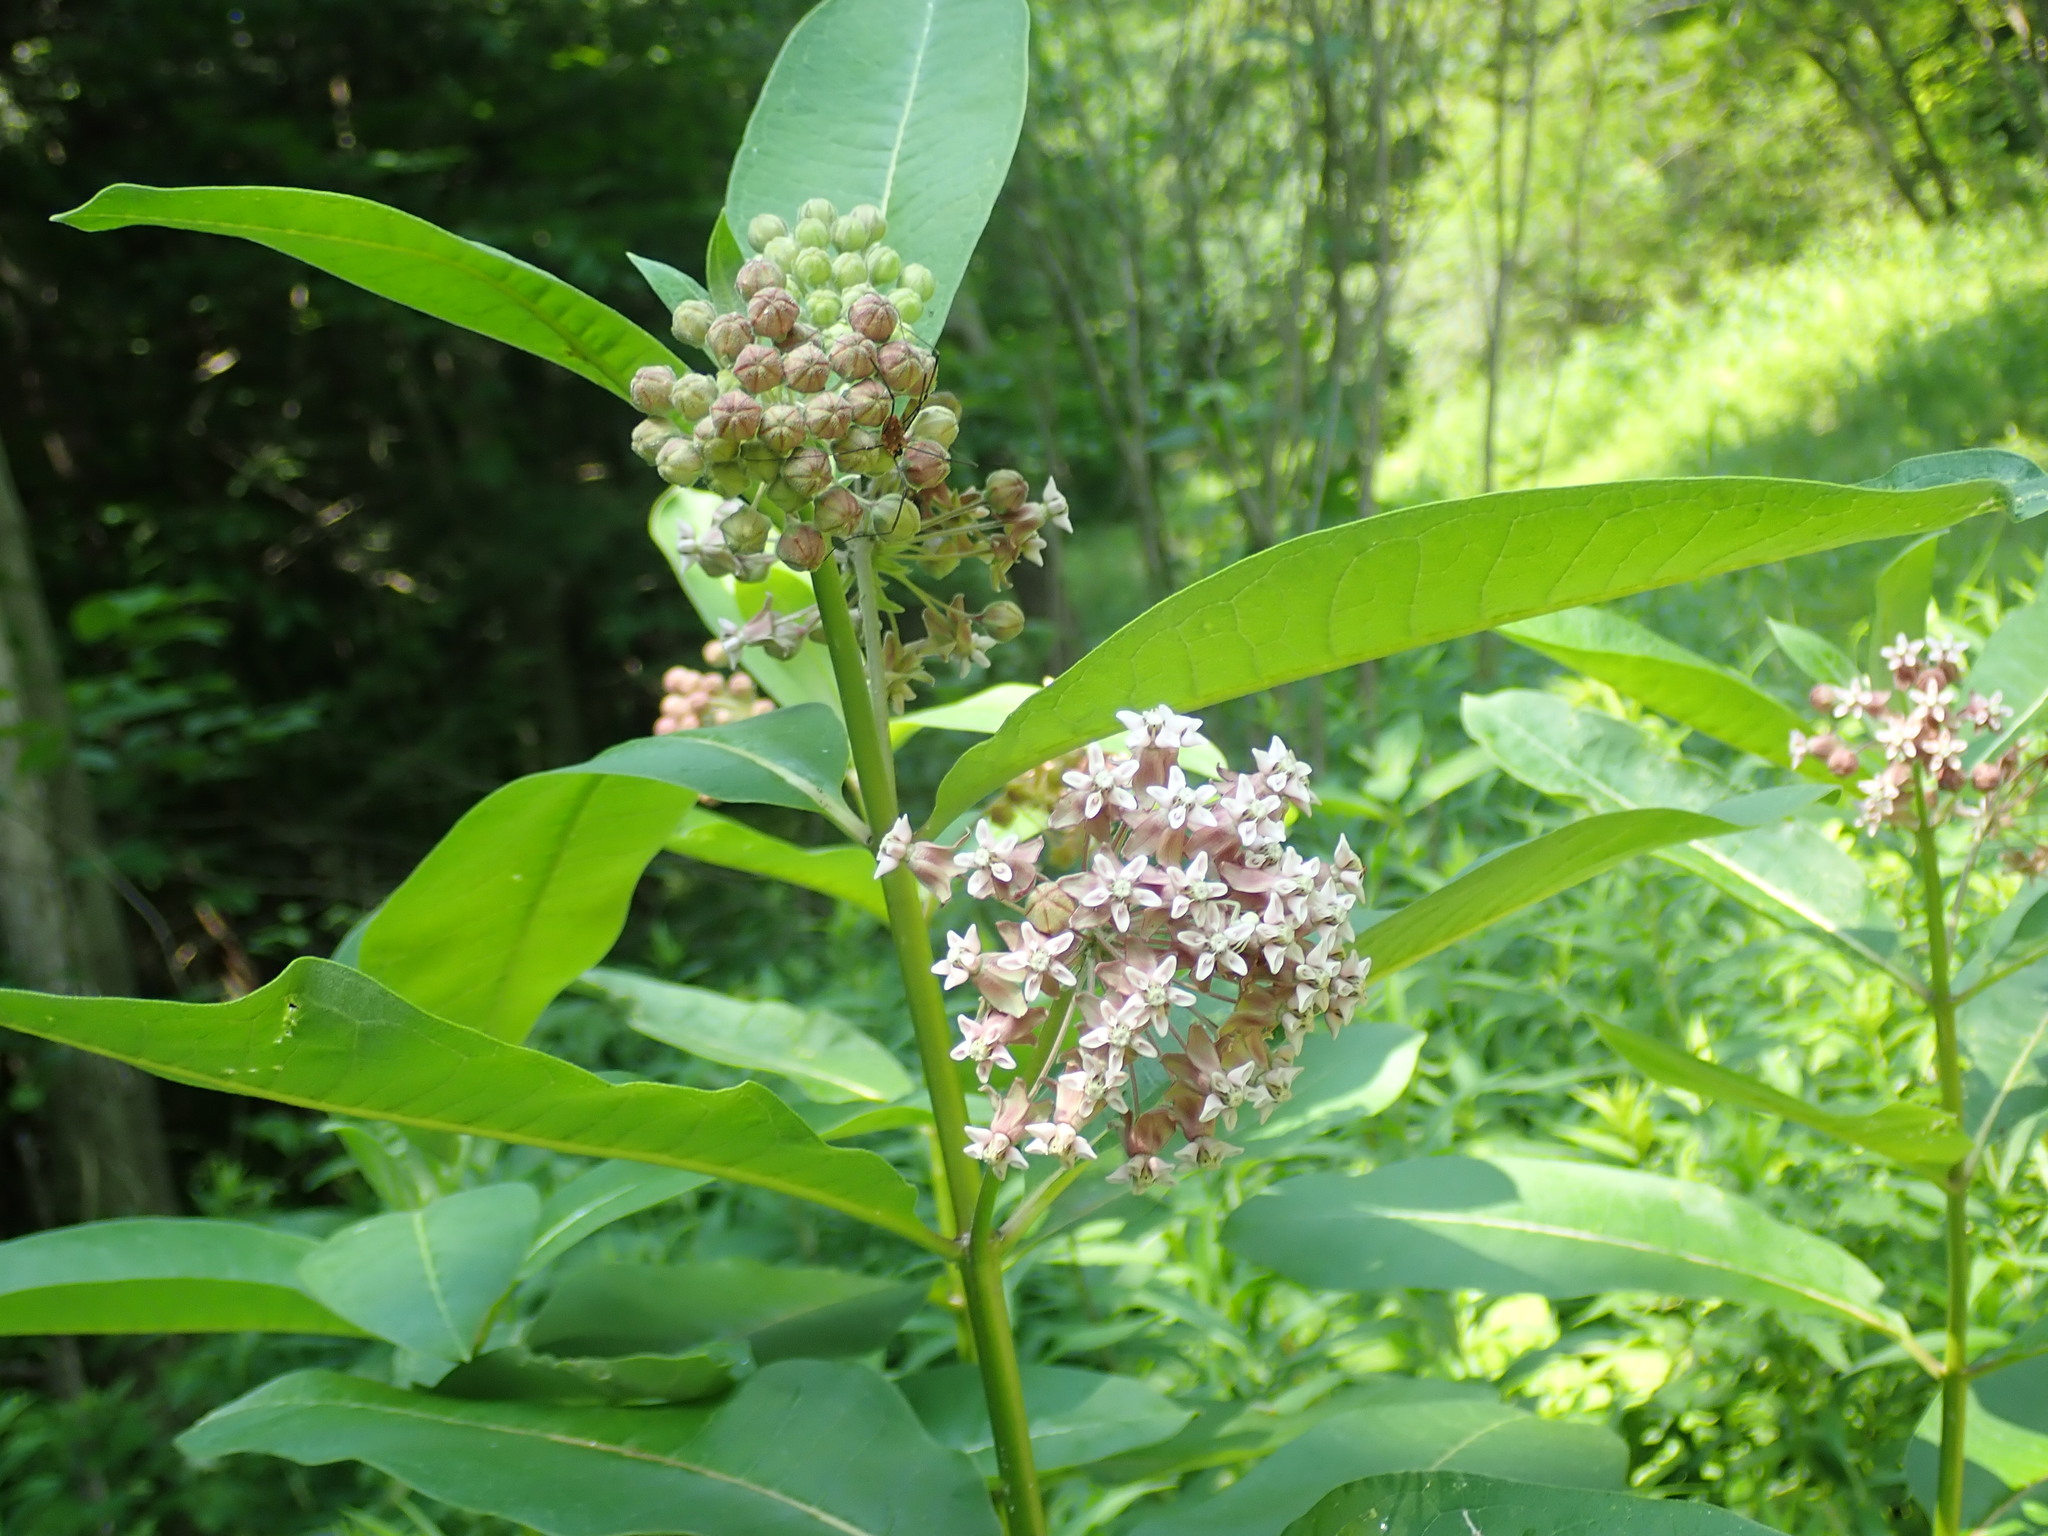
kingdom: Plantae
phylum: Tracheophyta
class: Magnoliopsida
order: Gentianales
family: Apocynaceae
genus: Asclepias
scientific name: Asclepias syriaca
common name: Common milkweed
